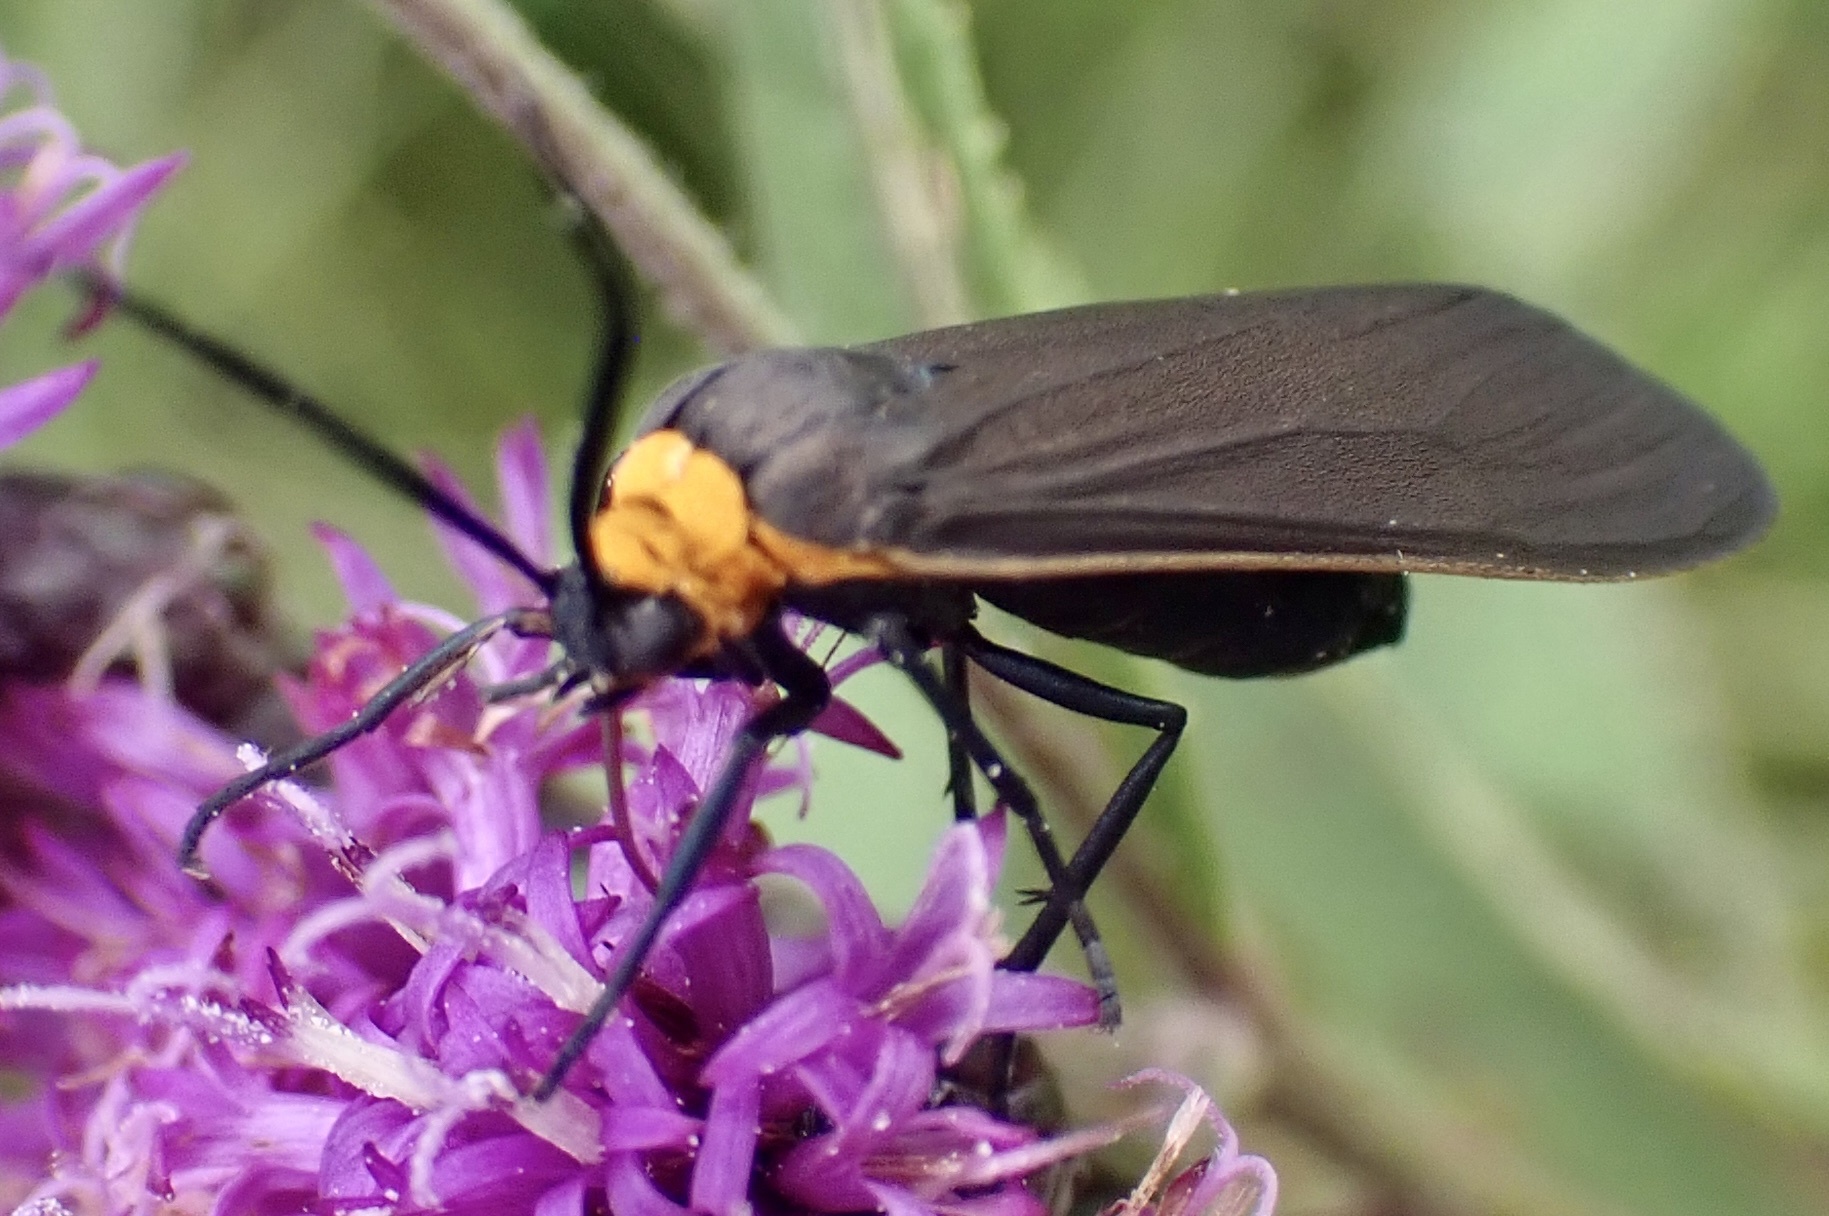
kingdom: Animalia
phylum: Arthropoda
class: Insecta
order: Lepidoptera
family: Erebidae
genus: Cisseps
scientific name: Cisseps fulvicollis
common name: Yellow-collared scape moth
